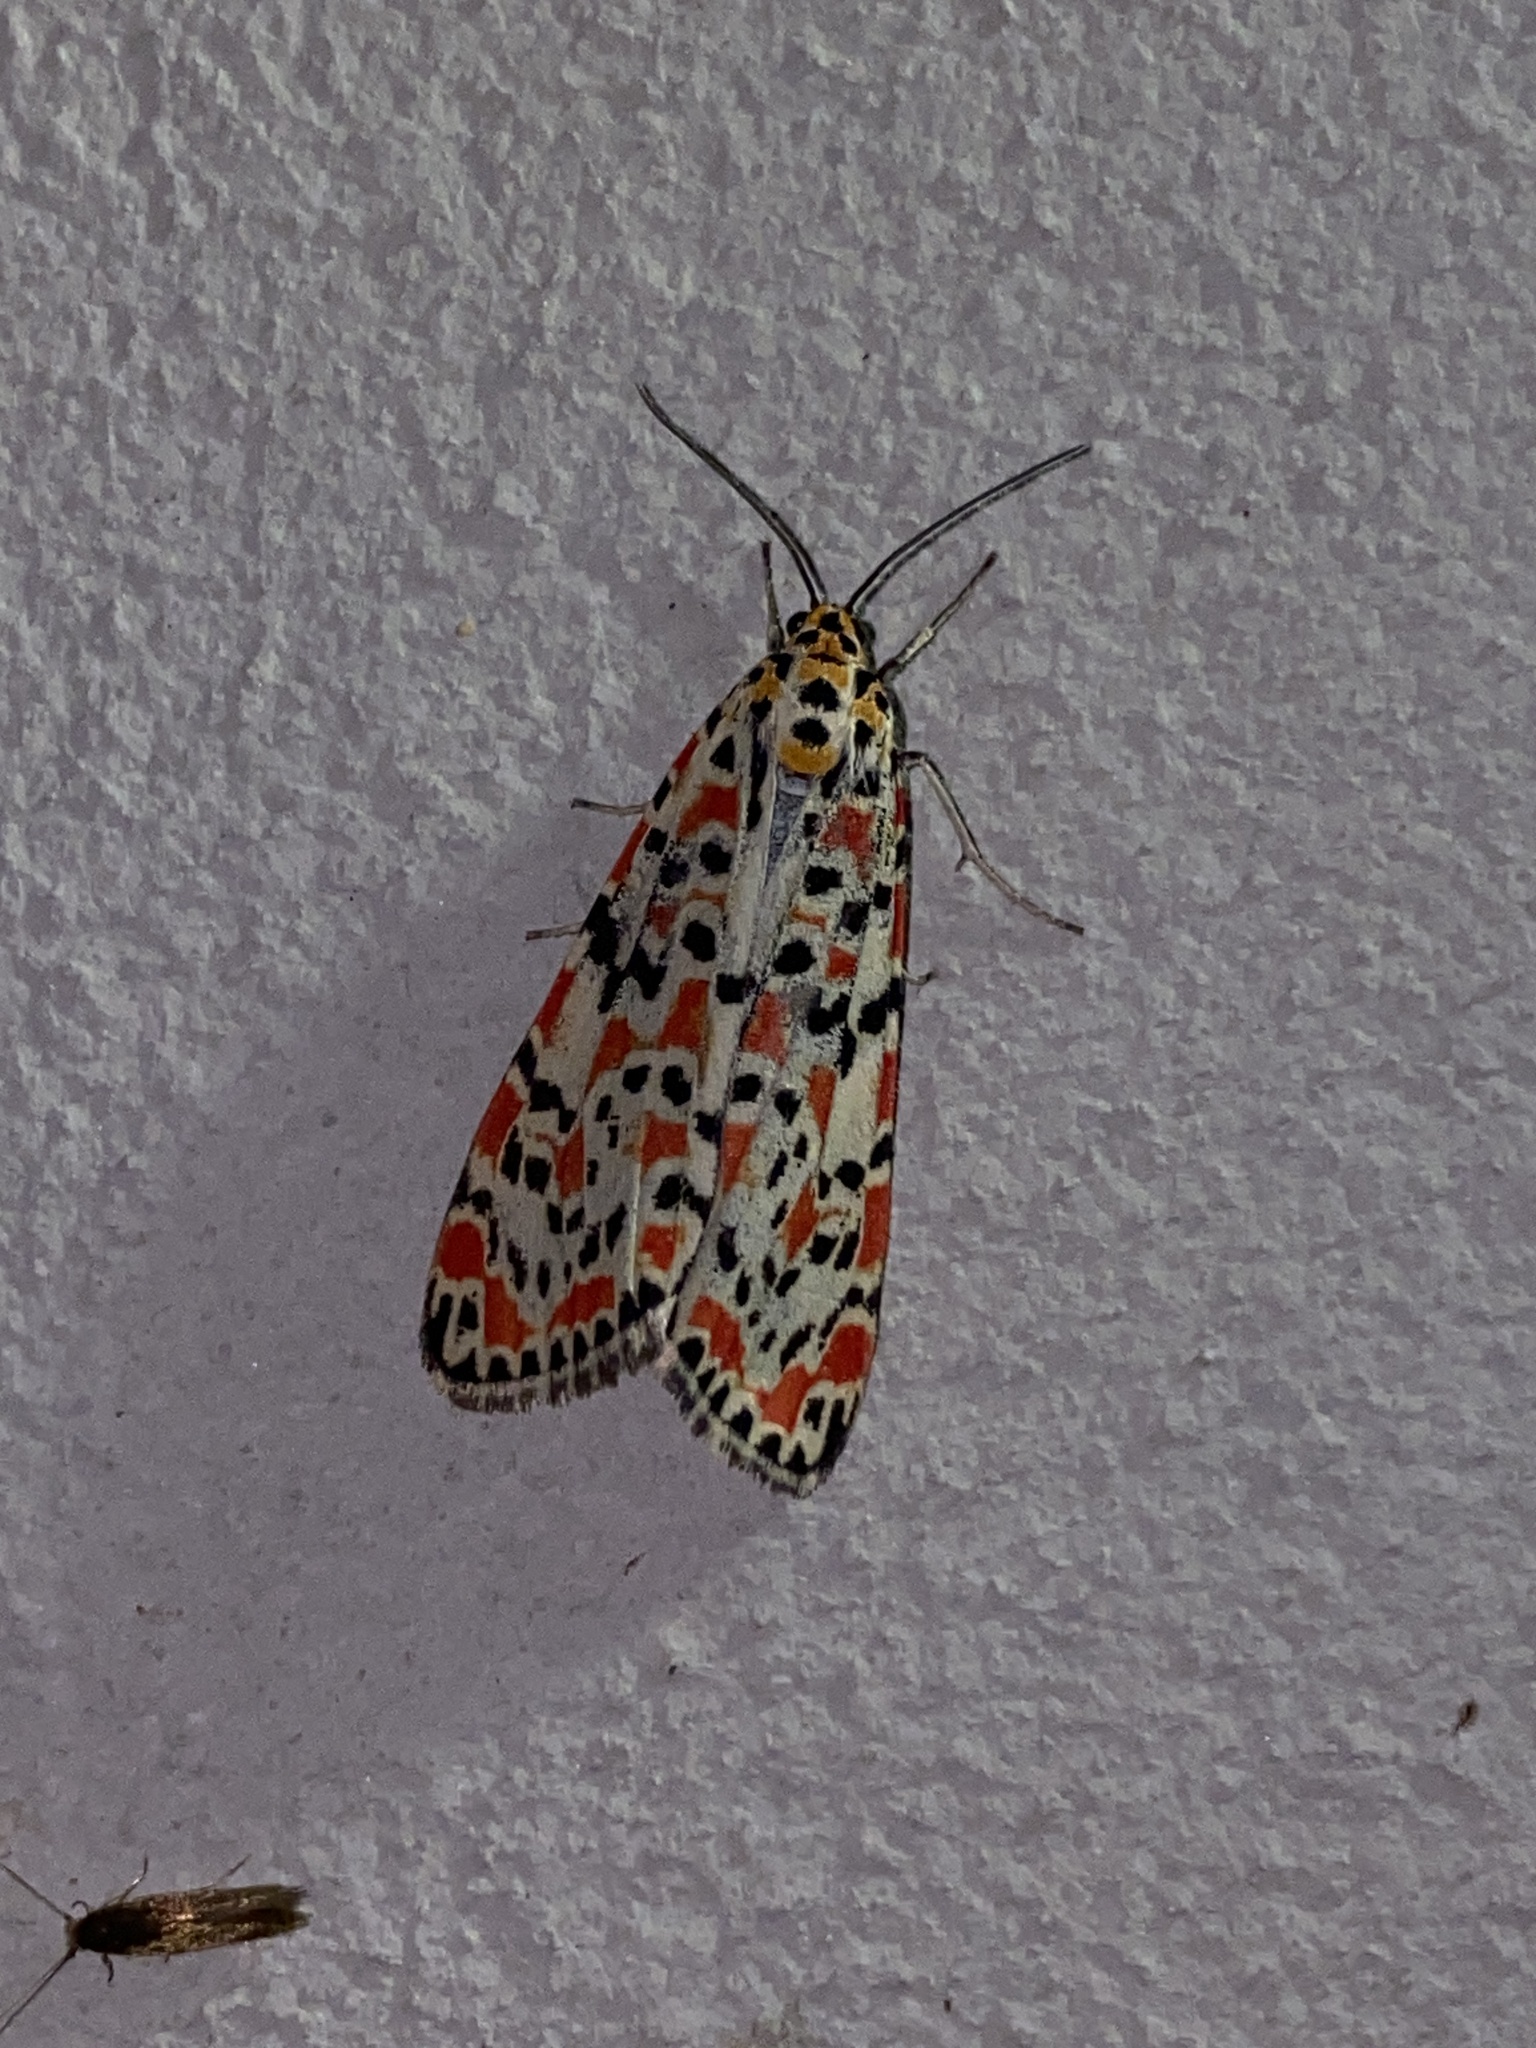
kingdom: Animalia
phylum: Arthropoda
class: Insecta
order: Lepidoptera
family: Erebidae
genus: Utetheisa
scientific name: Utetheisa pulchella
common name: Crimson speckled
